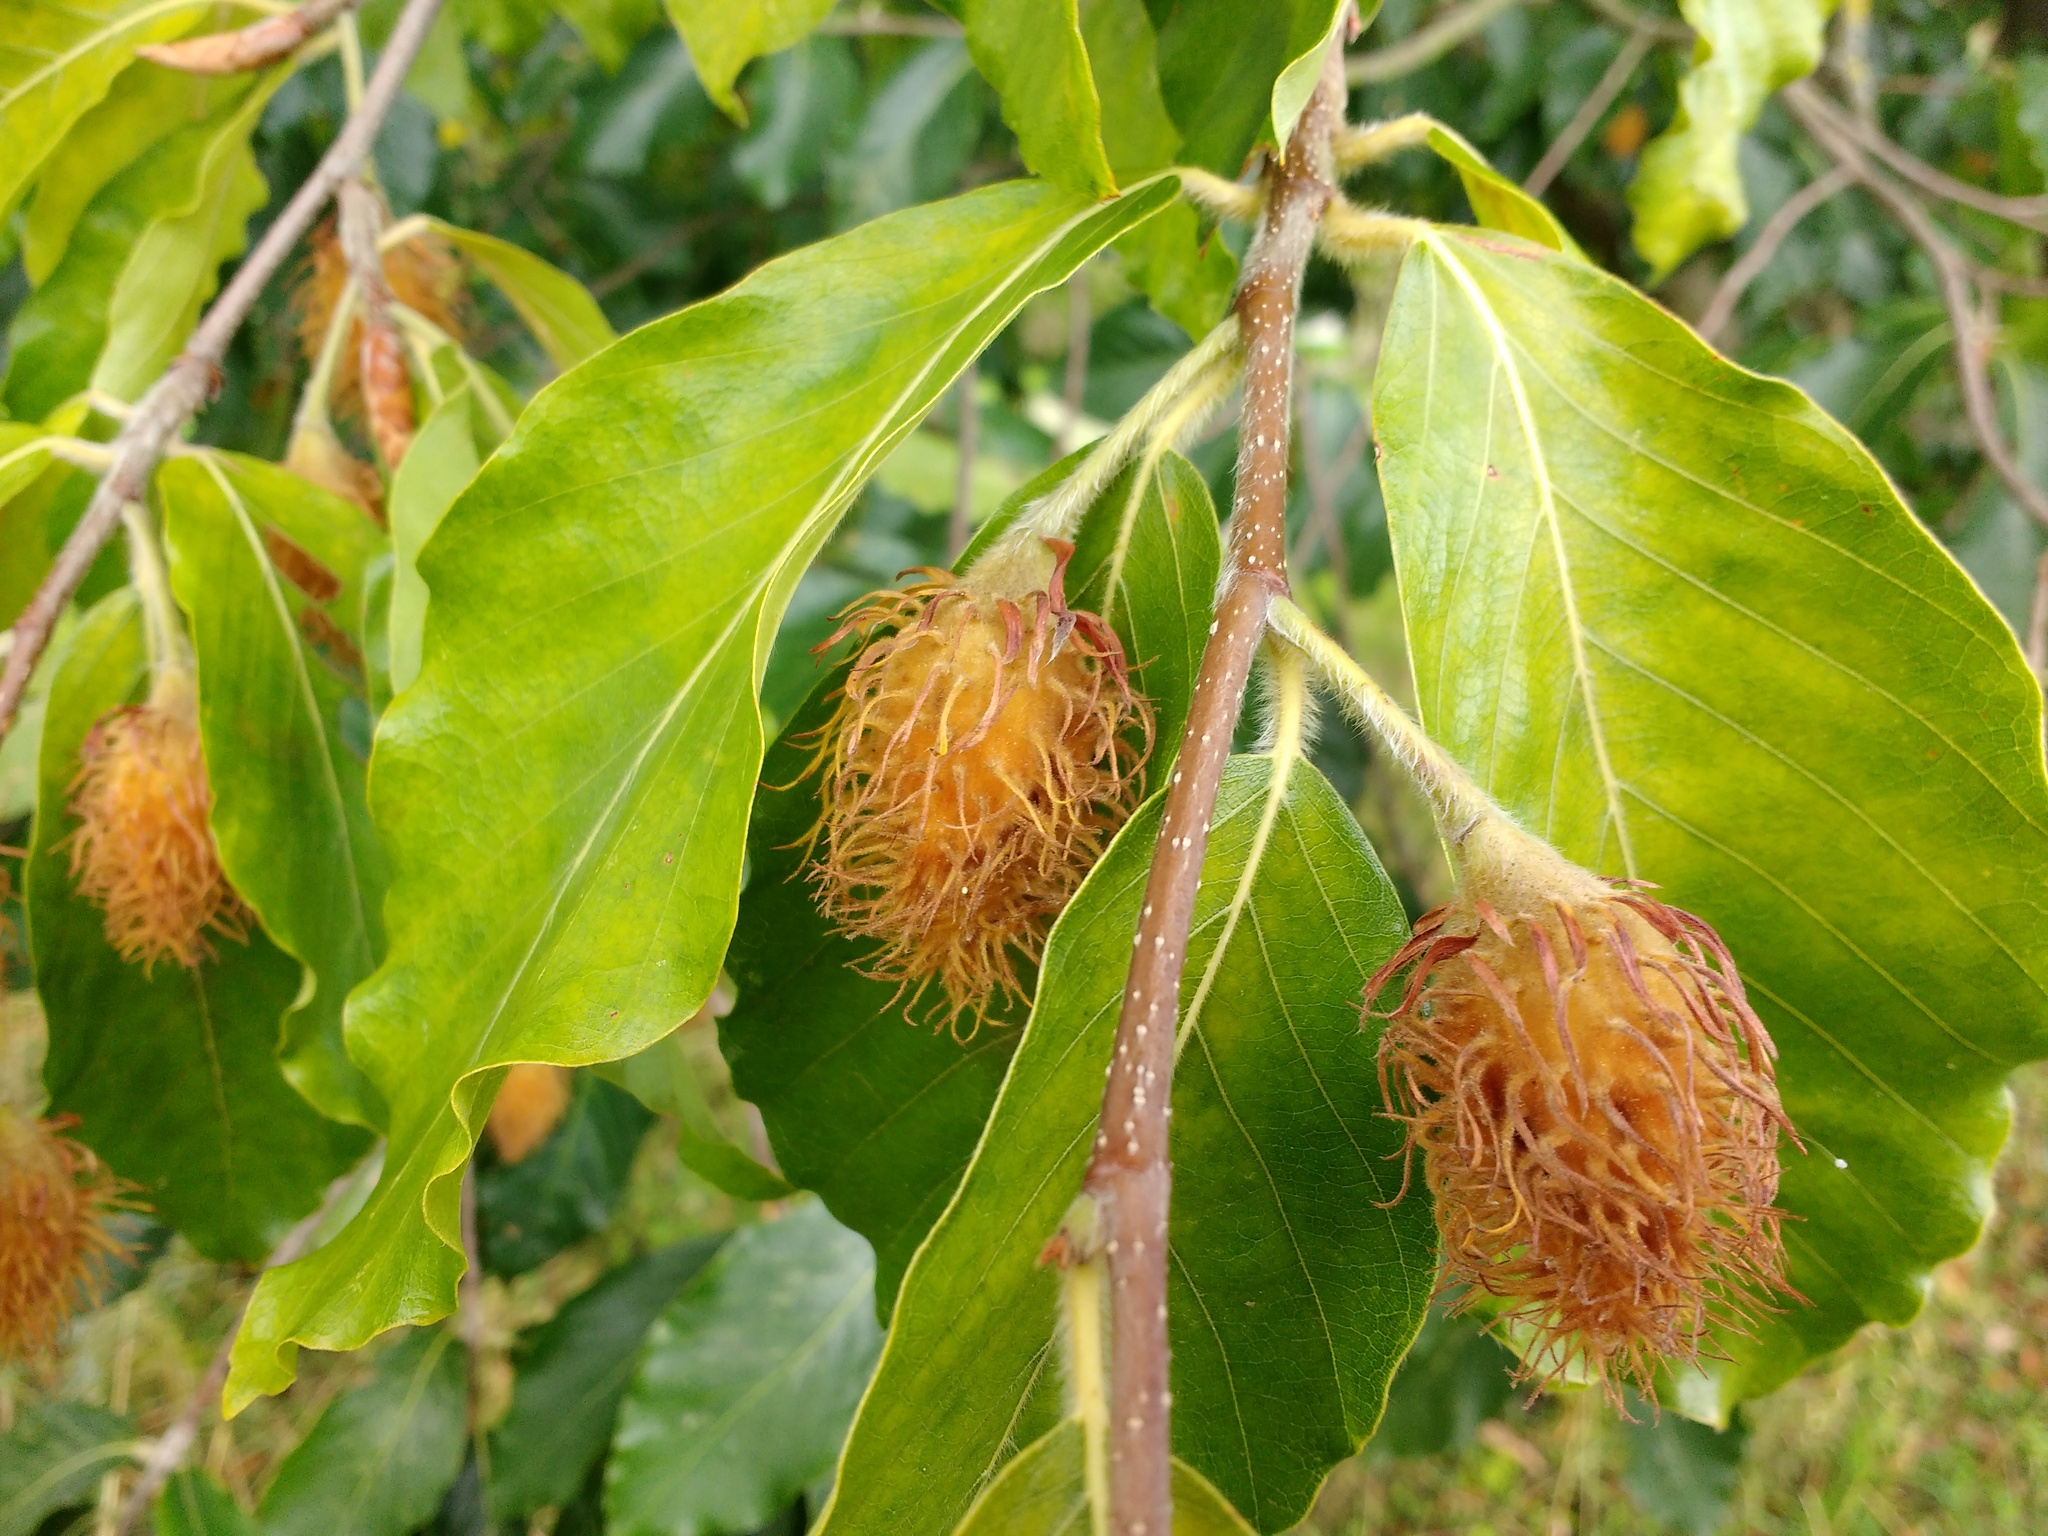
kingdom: Plantae
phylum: Tracheophyta
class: Magnoliopsida
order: Fagales
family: Fagaceae
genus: Fagus
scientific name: Fagus sylvatica
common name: Beech
